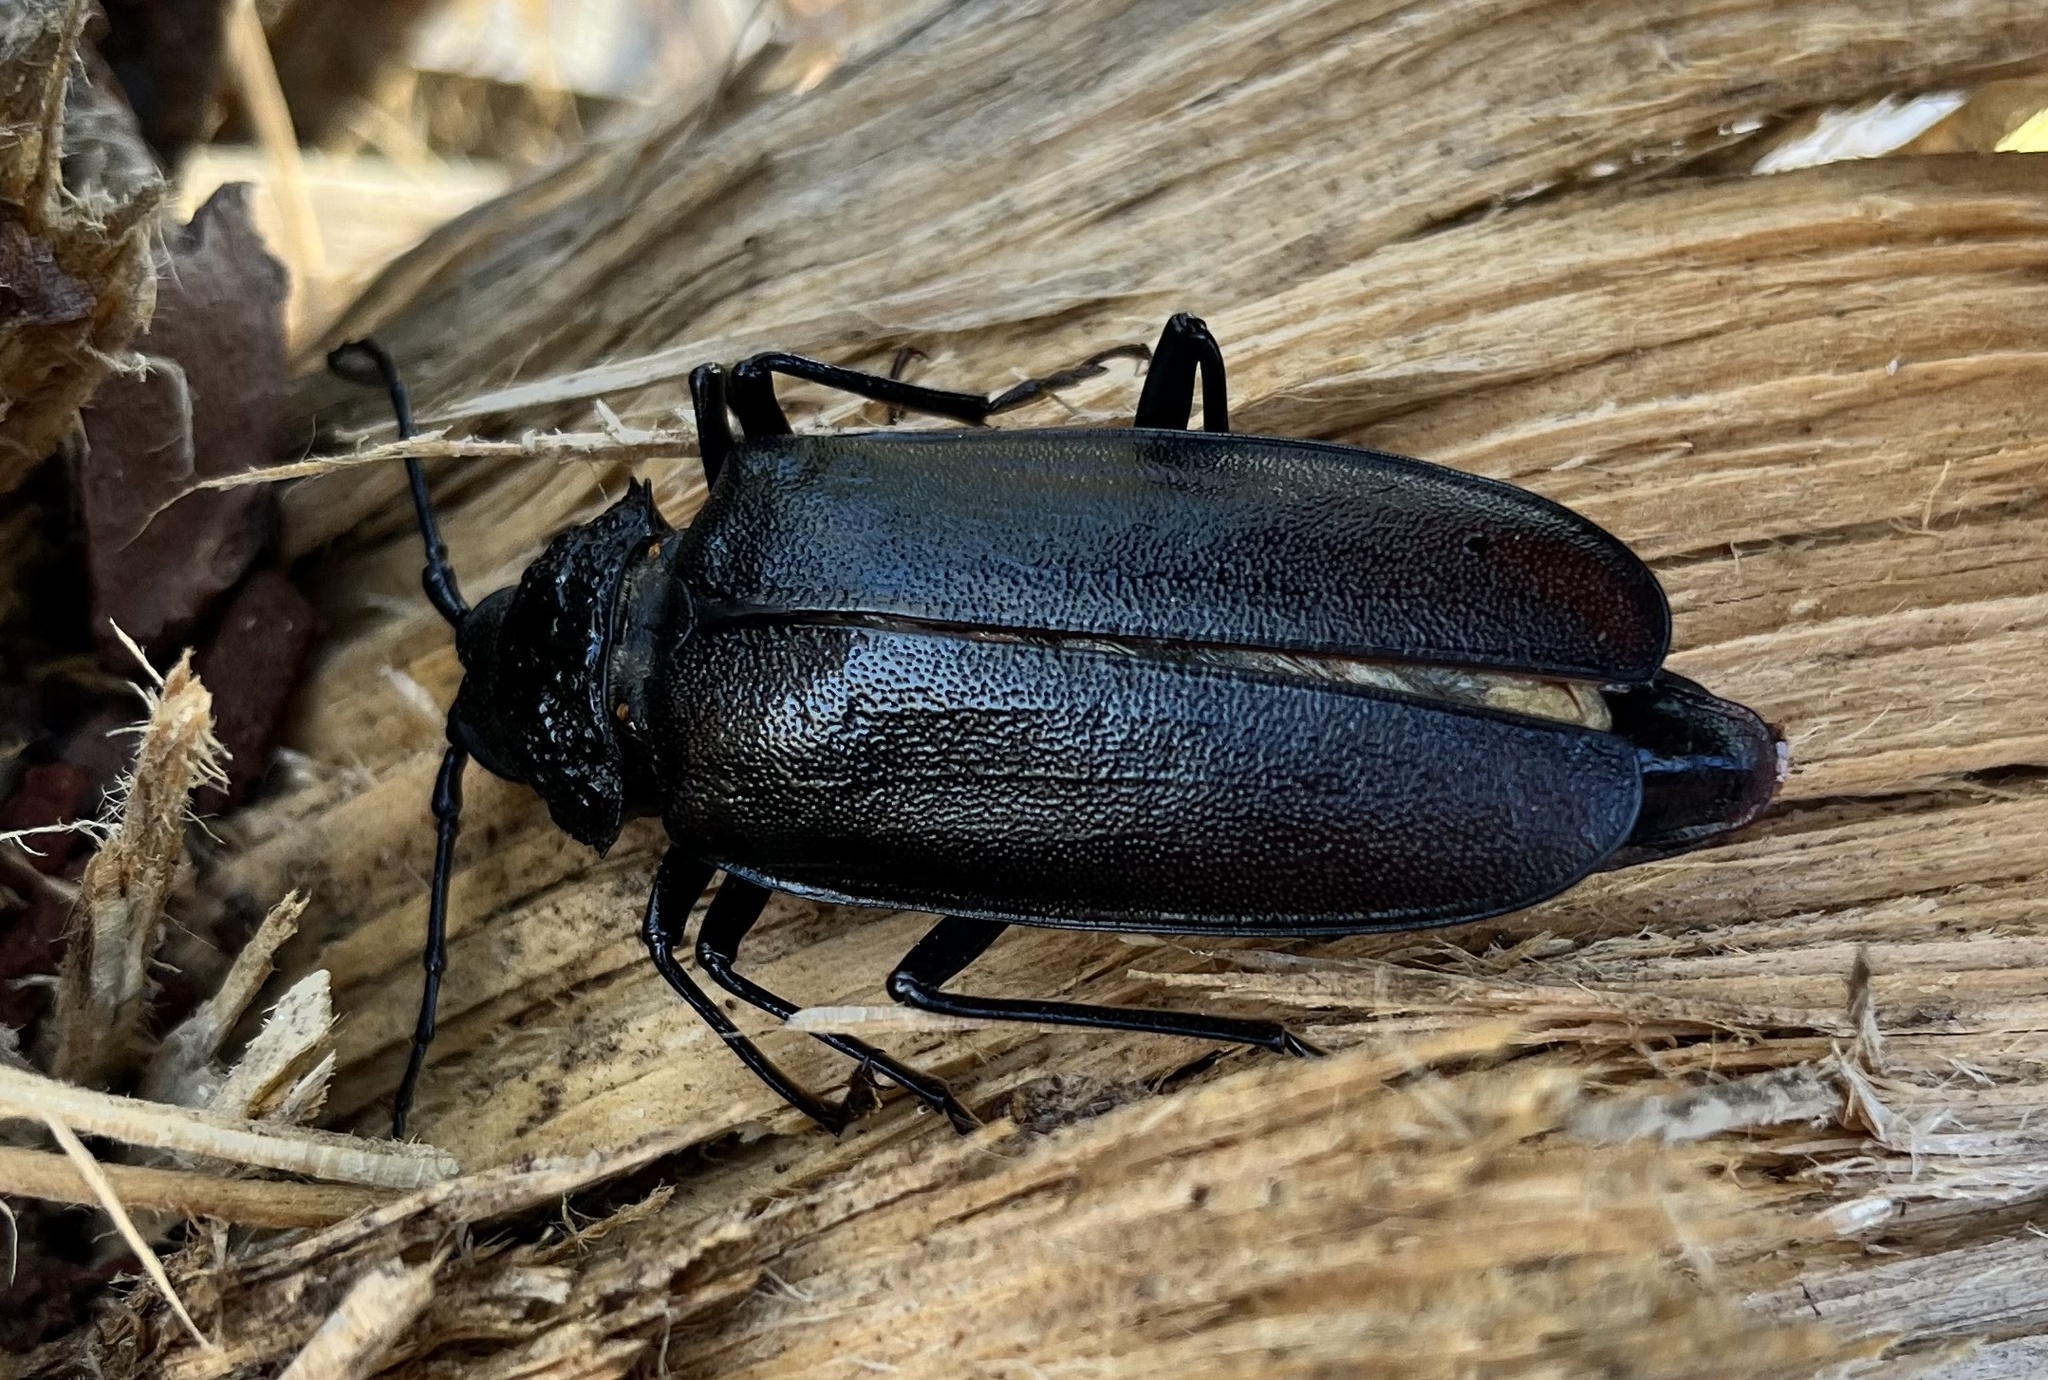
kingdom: Animalia
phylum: Arthropoda
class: Insecta
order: Coleoptera
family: Cerambycidae
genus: Ergates
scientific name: Ergates faber
